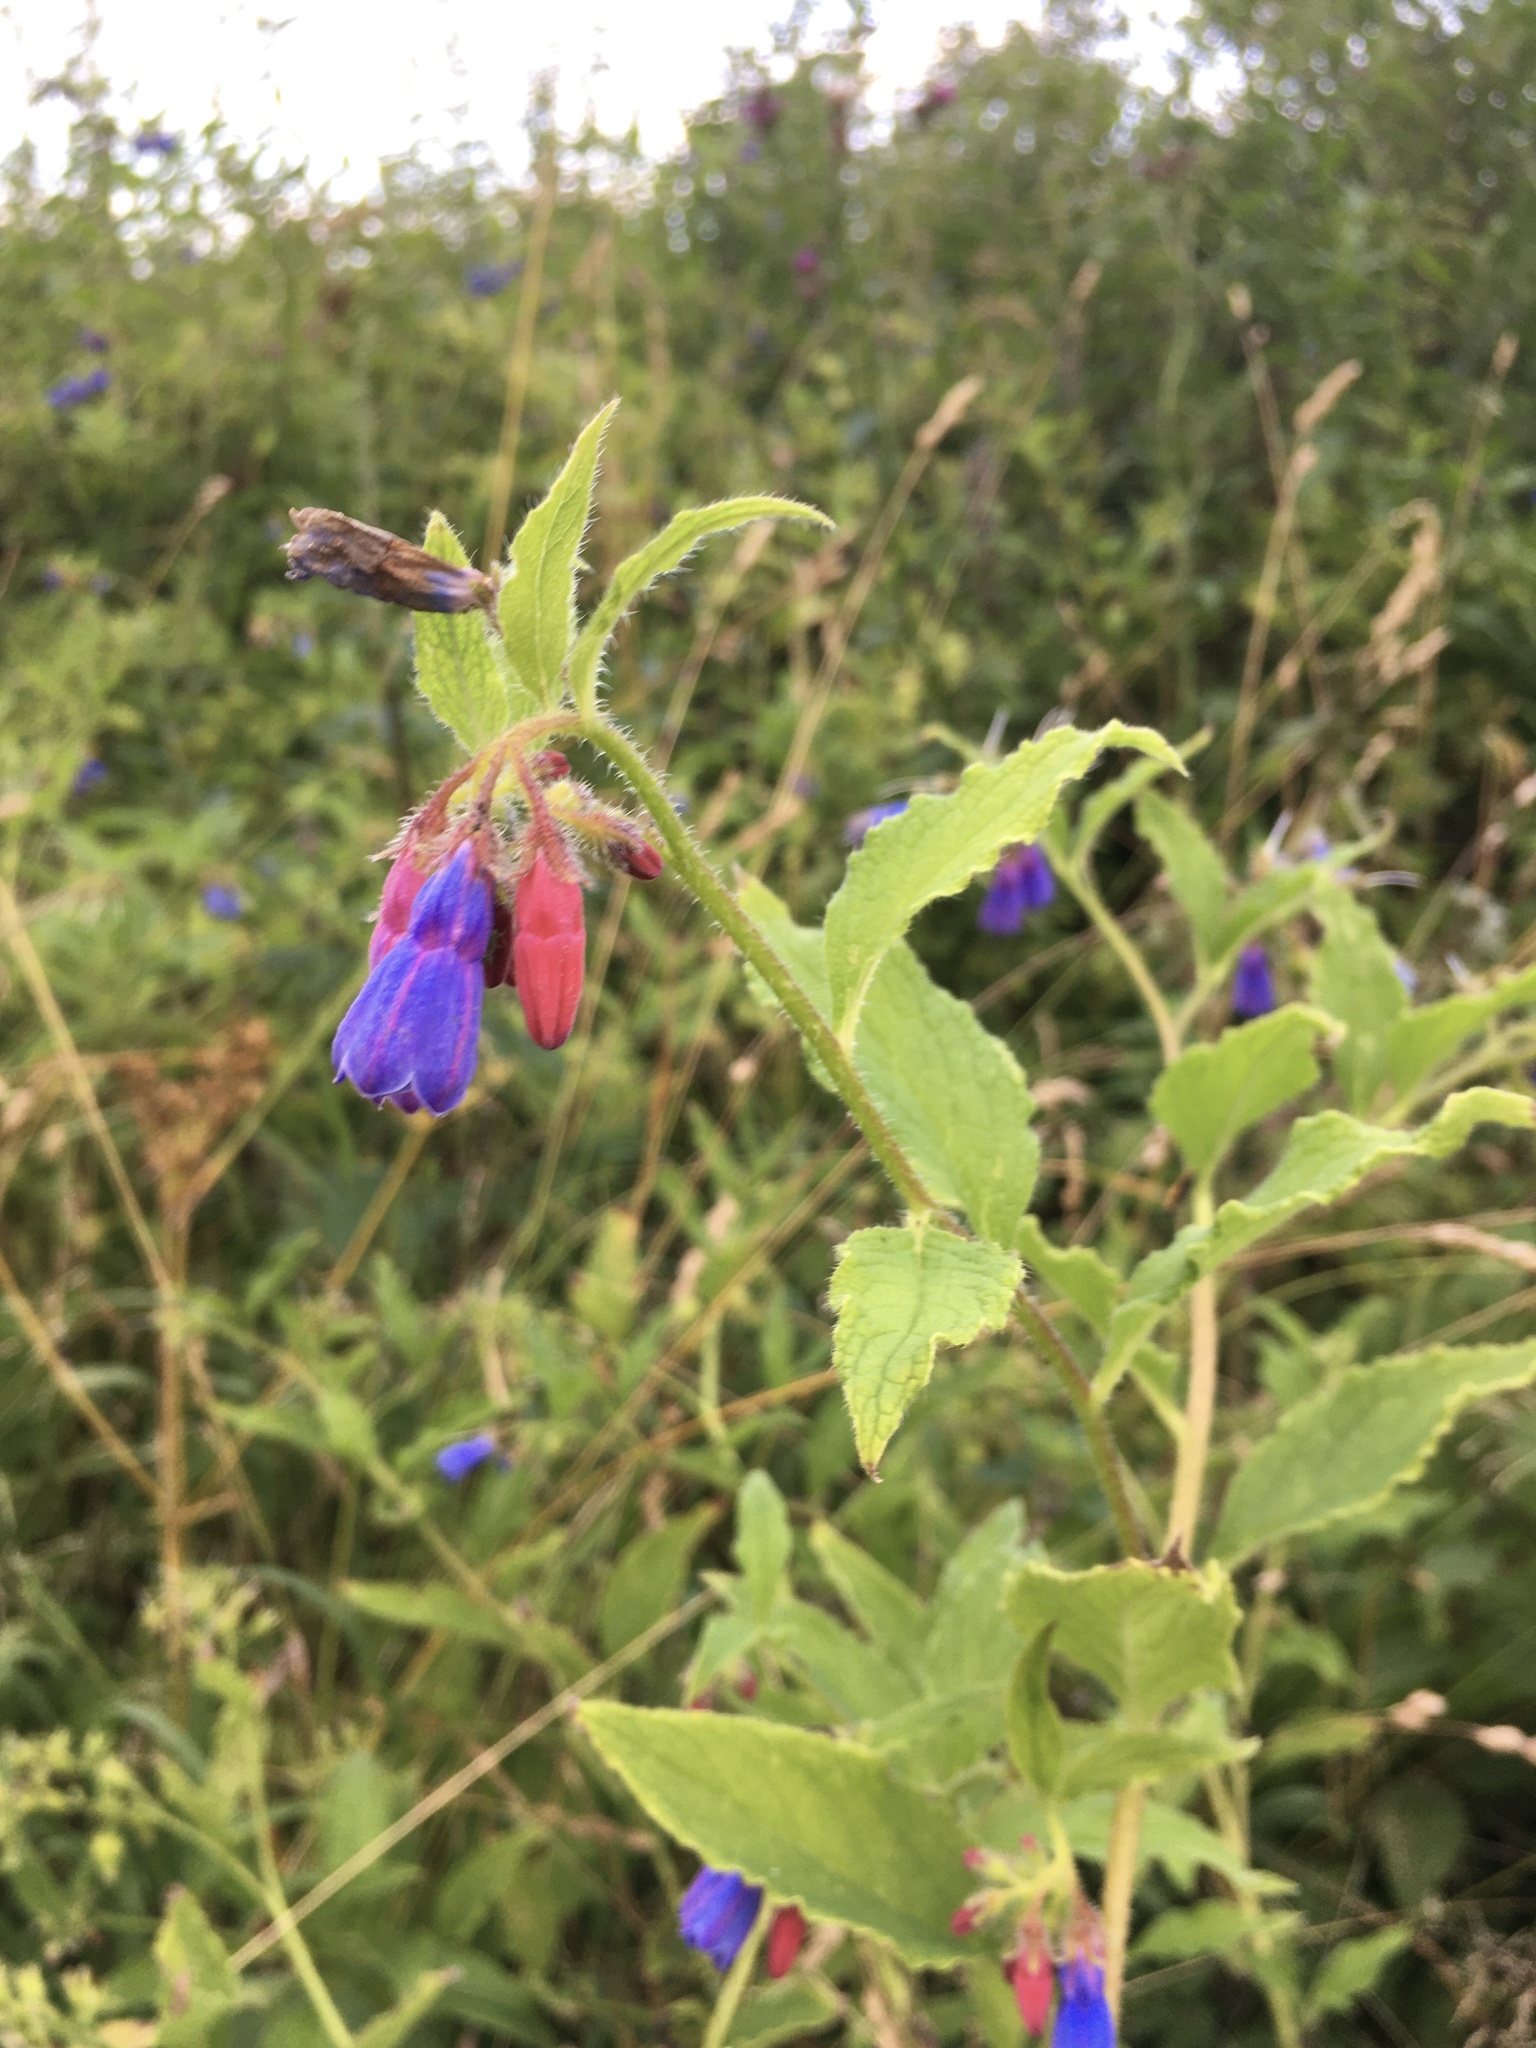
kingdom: Plantae
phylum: Tracheophyta
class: Magnoliopsida
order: Boraginales
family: Boraginaceae
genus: Symphytum
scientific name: Symphytum asperum
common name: Prickly comfrey
